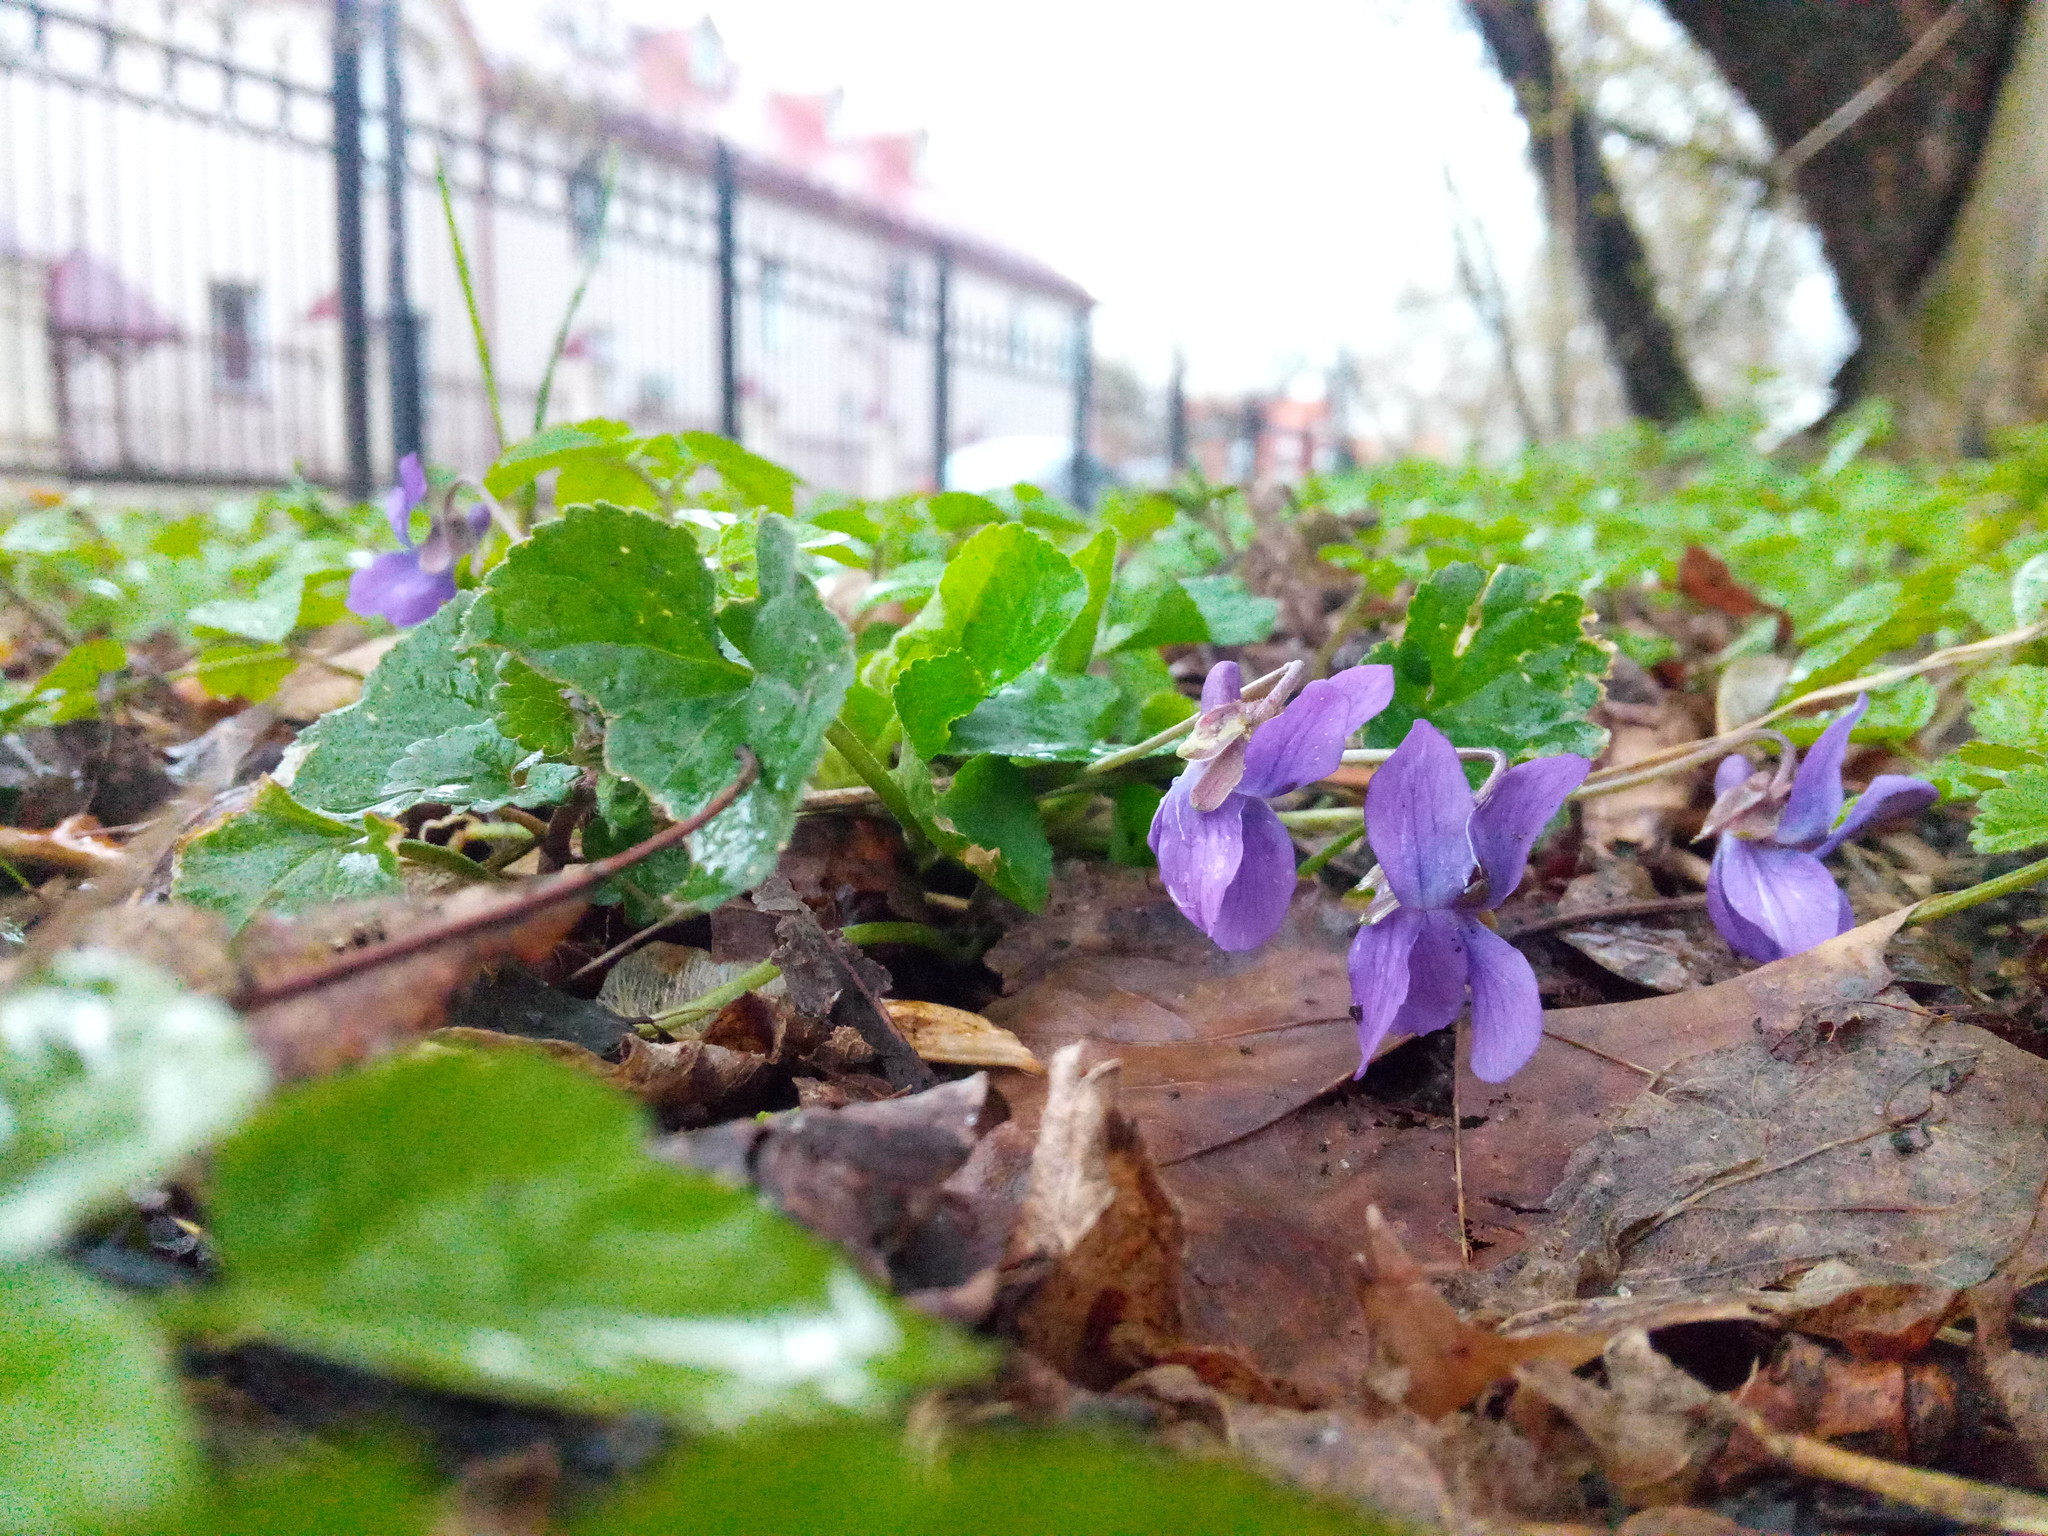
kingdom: Plantae
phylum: Tracheophyta
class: Magnoliopsida
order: Malpighiales
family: Violaceae
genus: Viola
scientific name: Viola odorata
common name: Sweet violet
